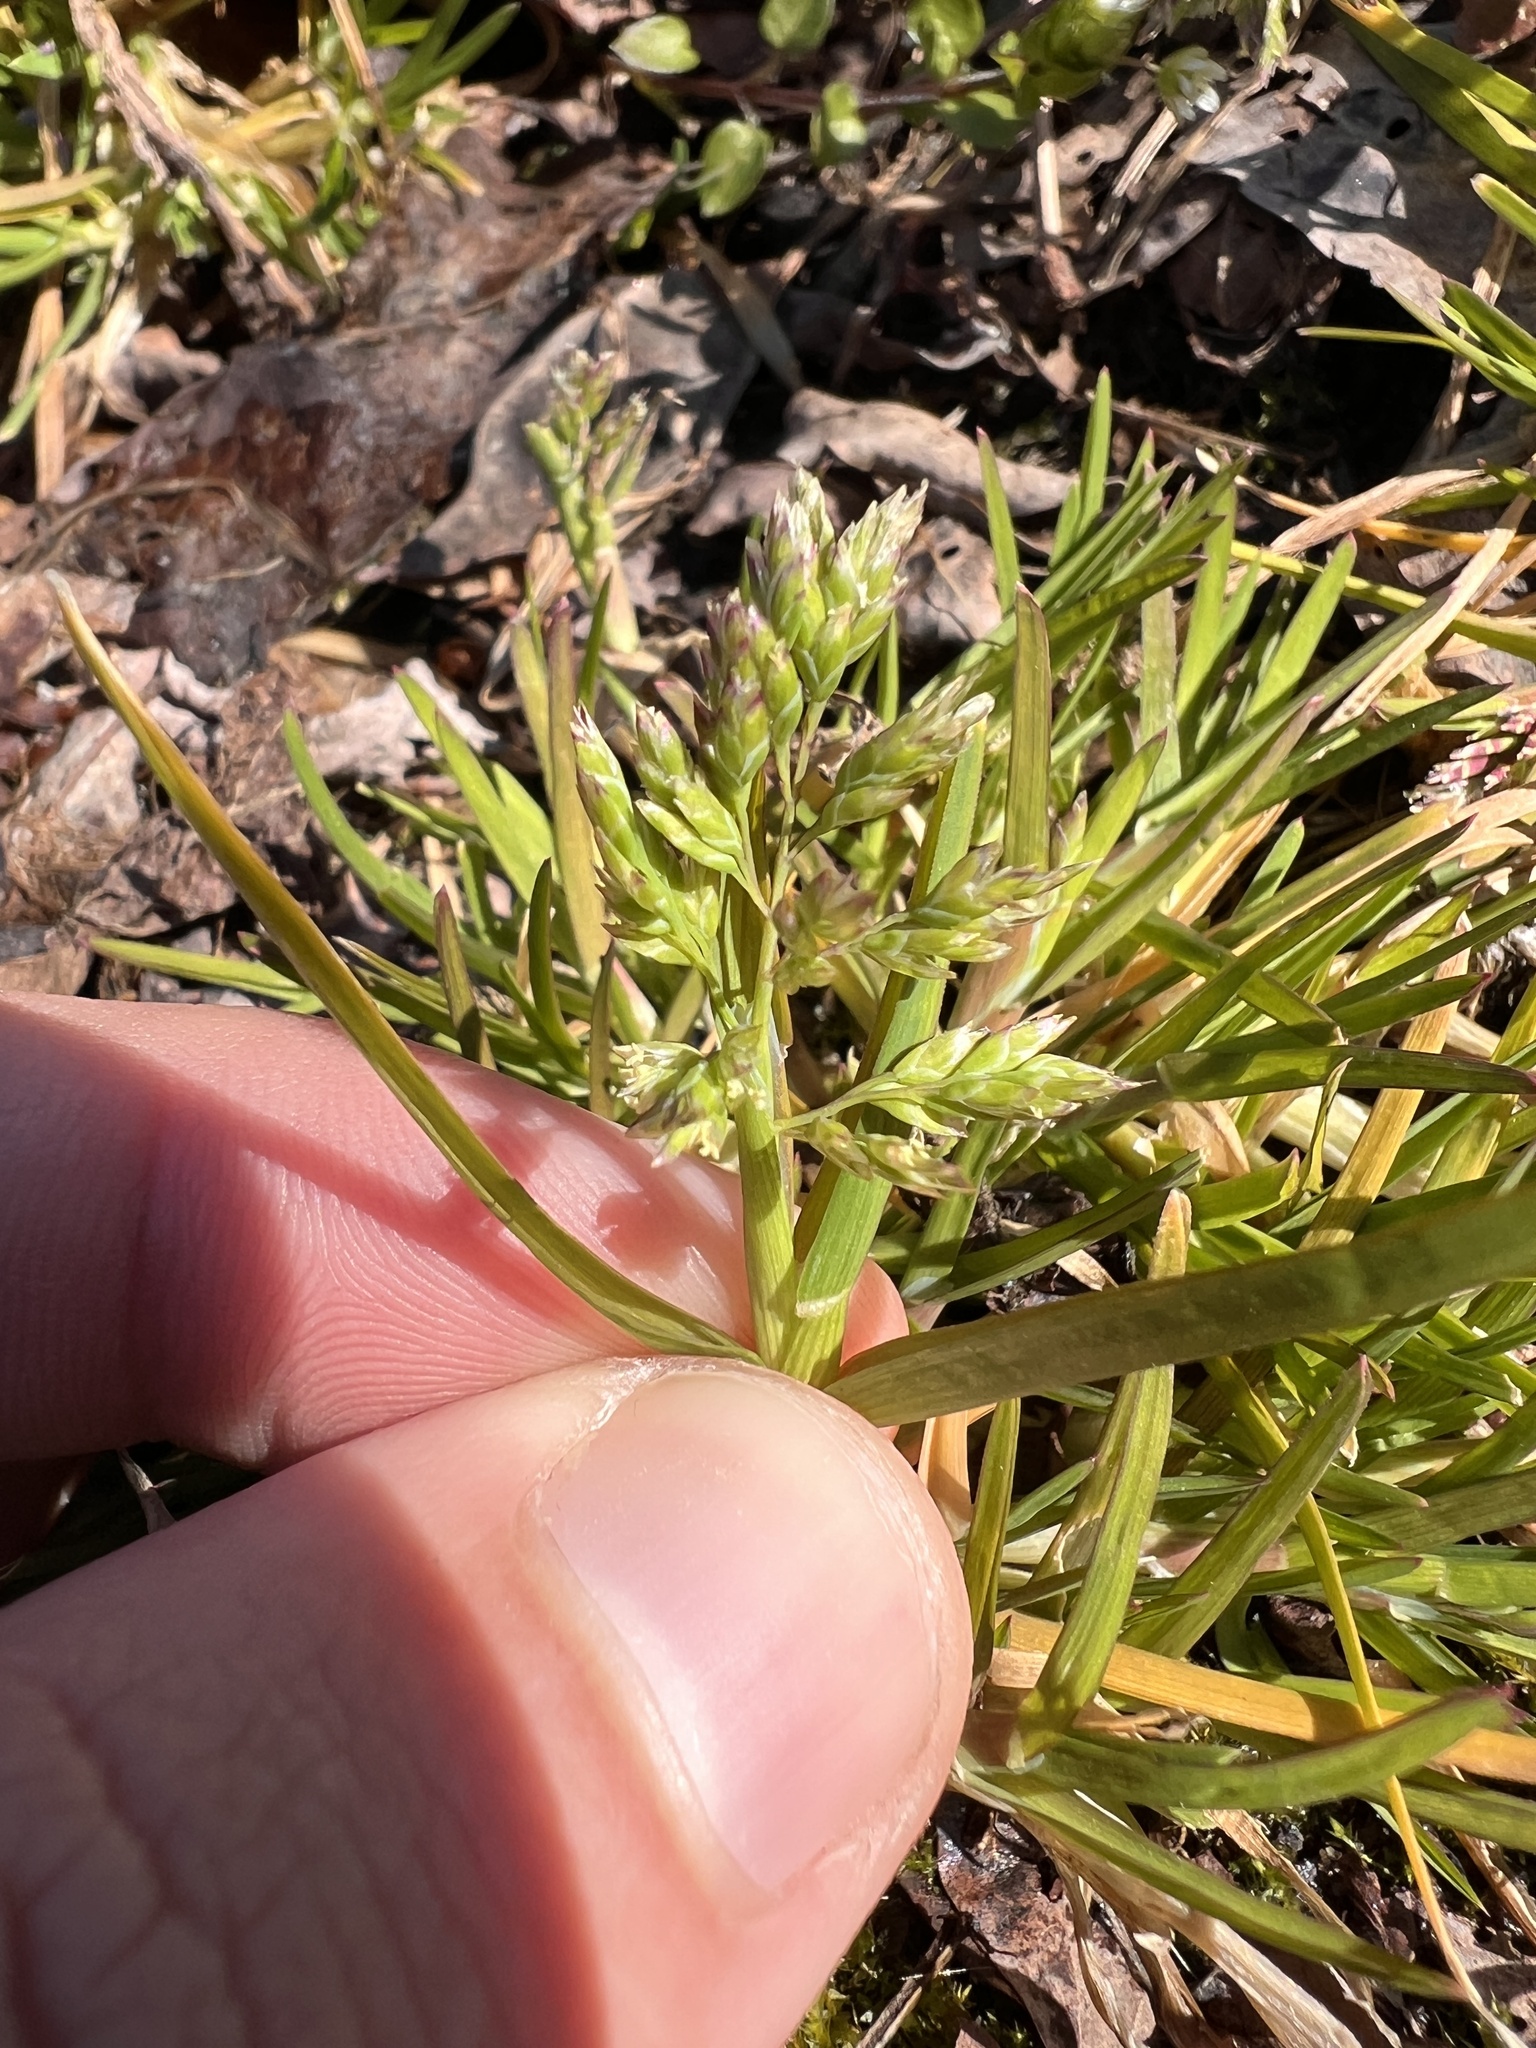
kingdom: Plantae
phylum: Tracheophyta
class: Liliopsida
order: Poales
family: Poaceae
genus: Poa
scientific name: Poa annua
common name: Annual bluegrass
